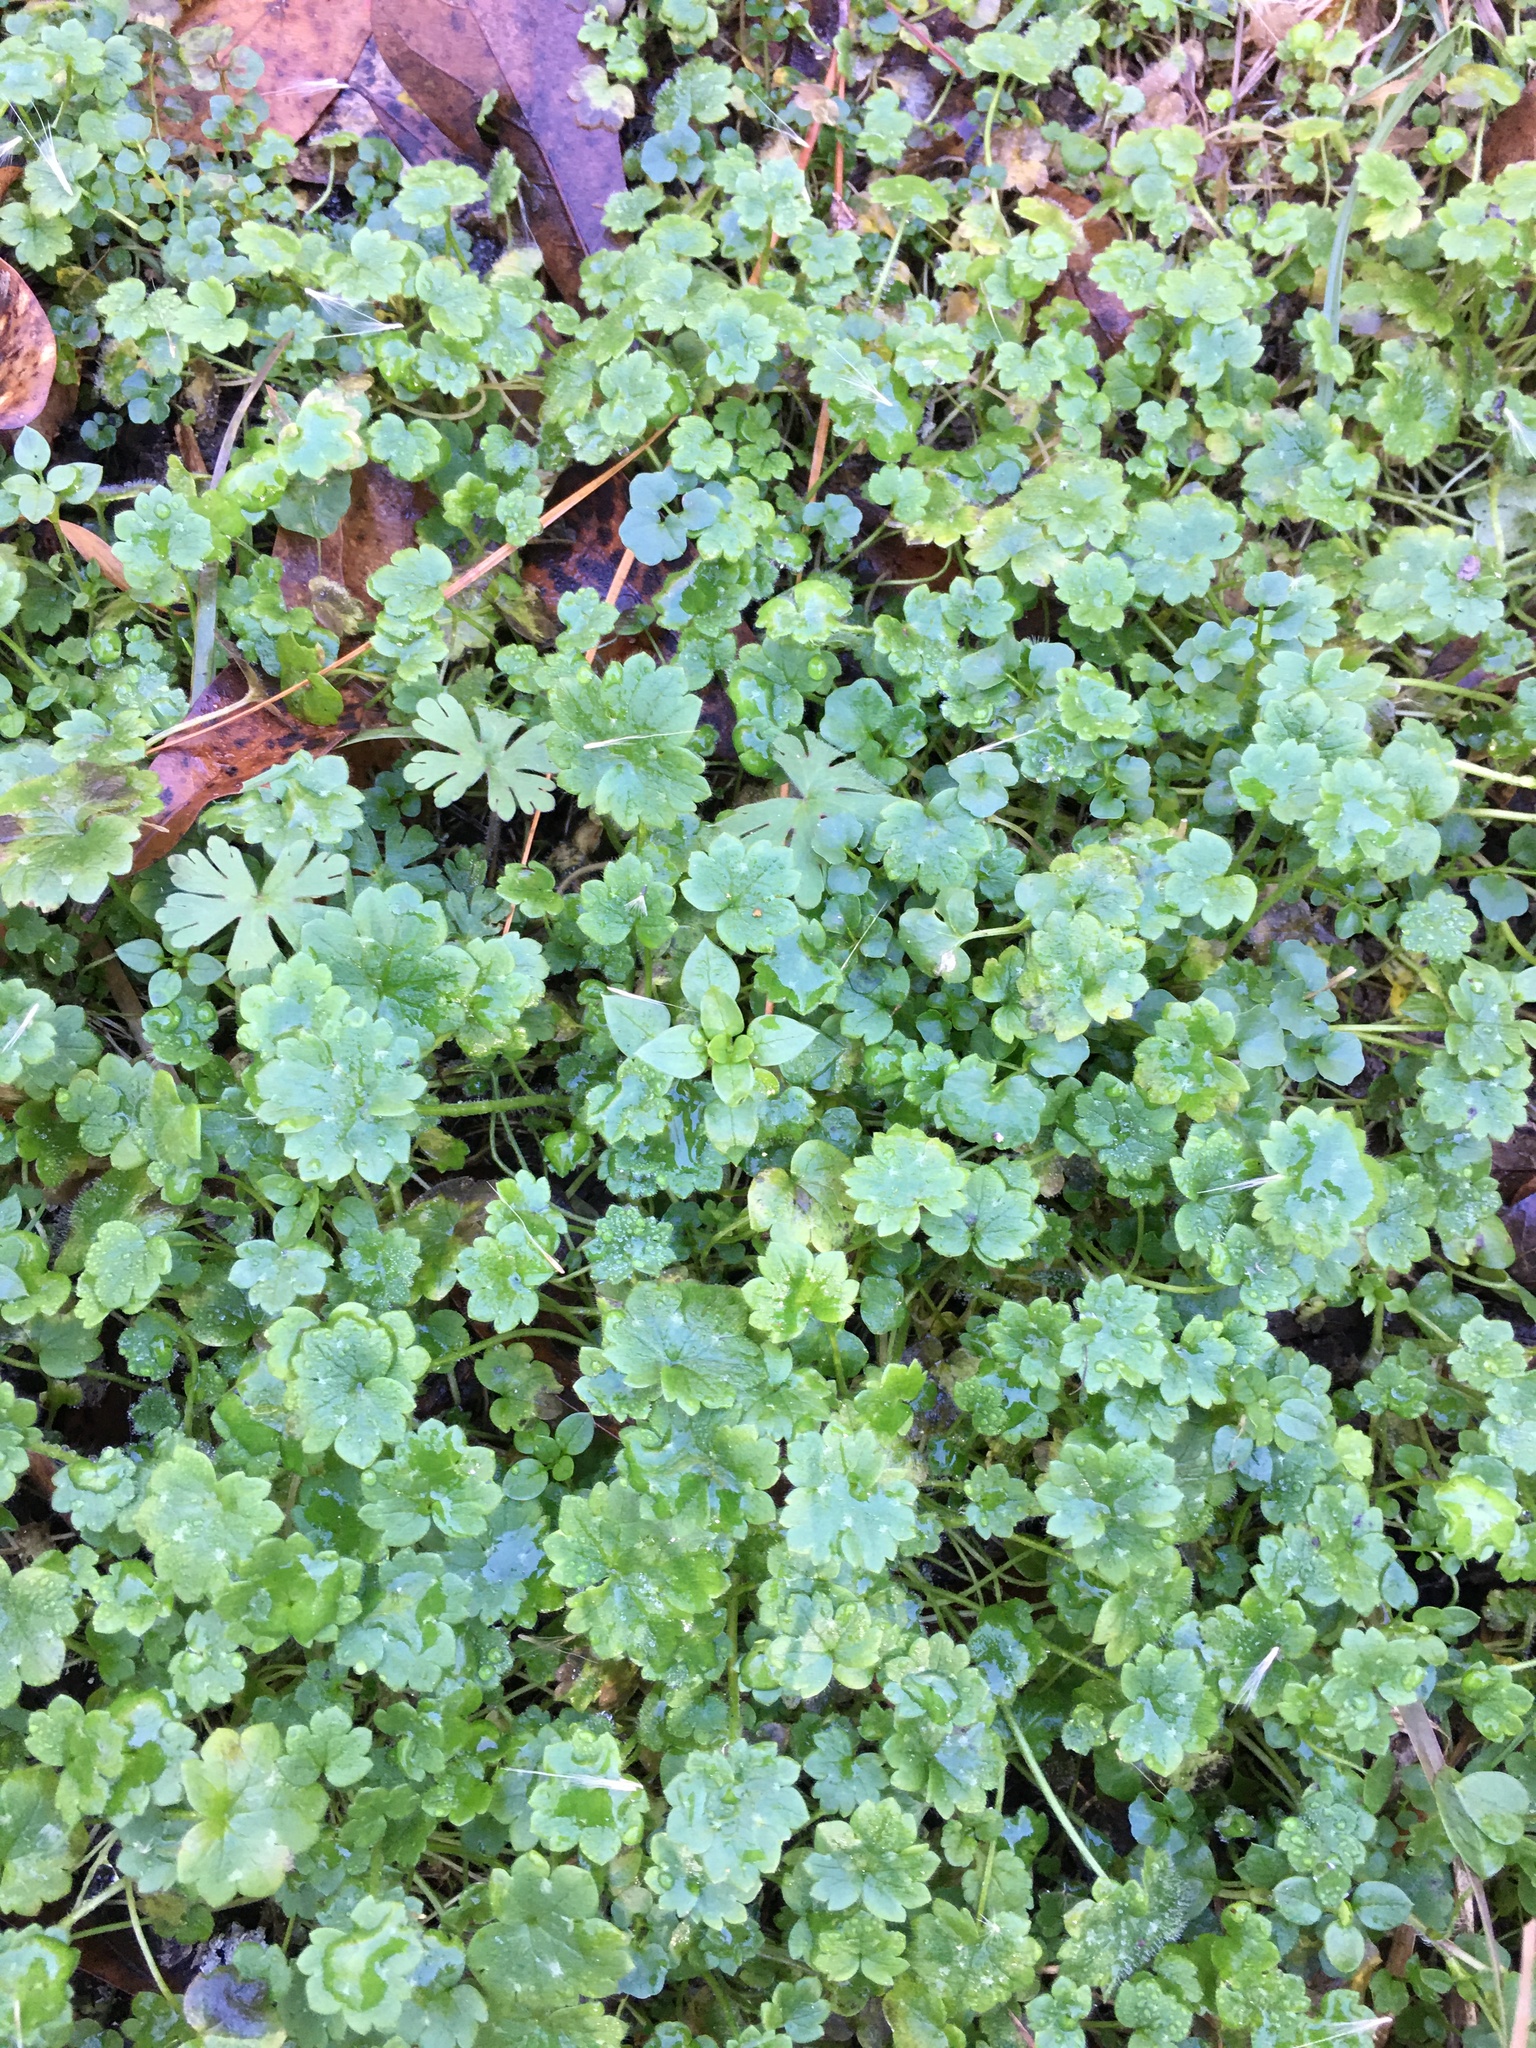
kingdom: Plantae
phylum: Tracheophyta
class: Magnoliopsida
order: Ranunculales
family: Ranunculaceae
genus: Ranunculus
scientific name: Ranunculus parviflorus
